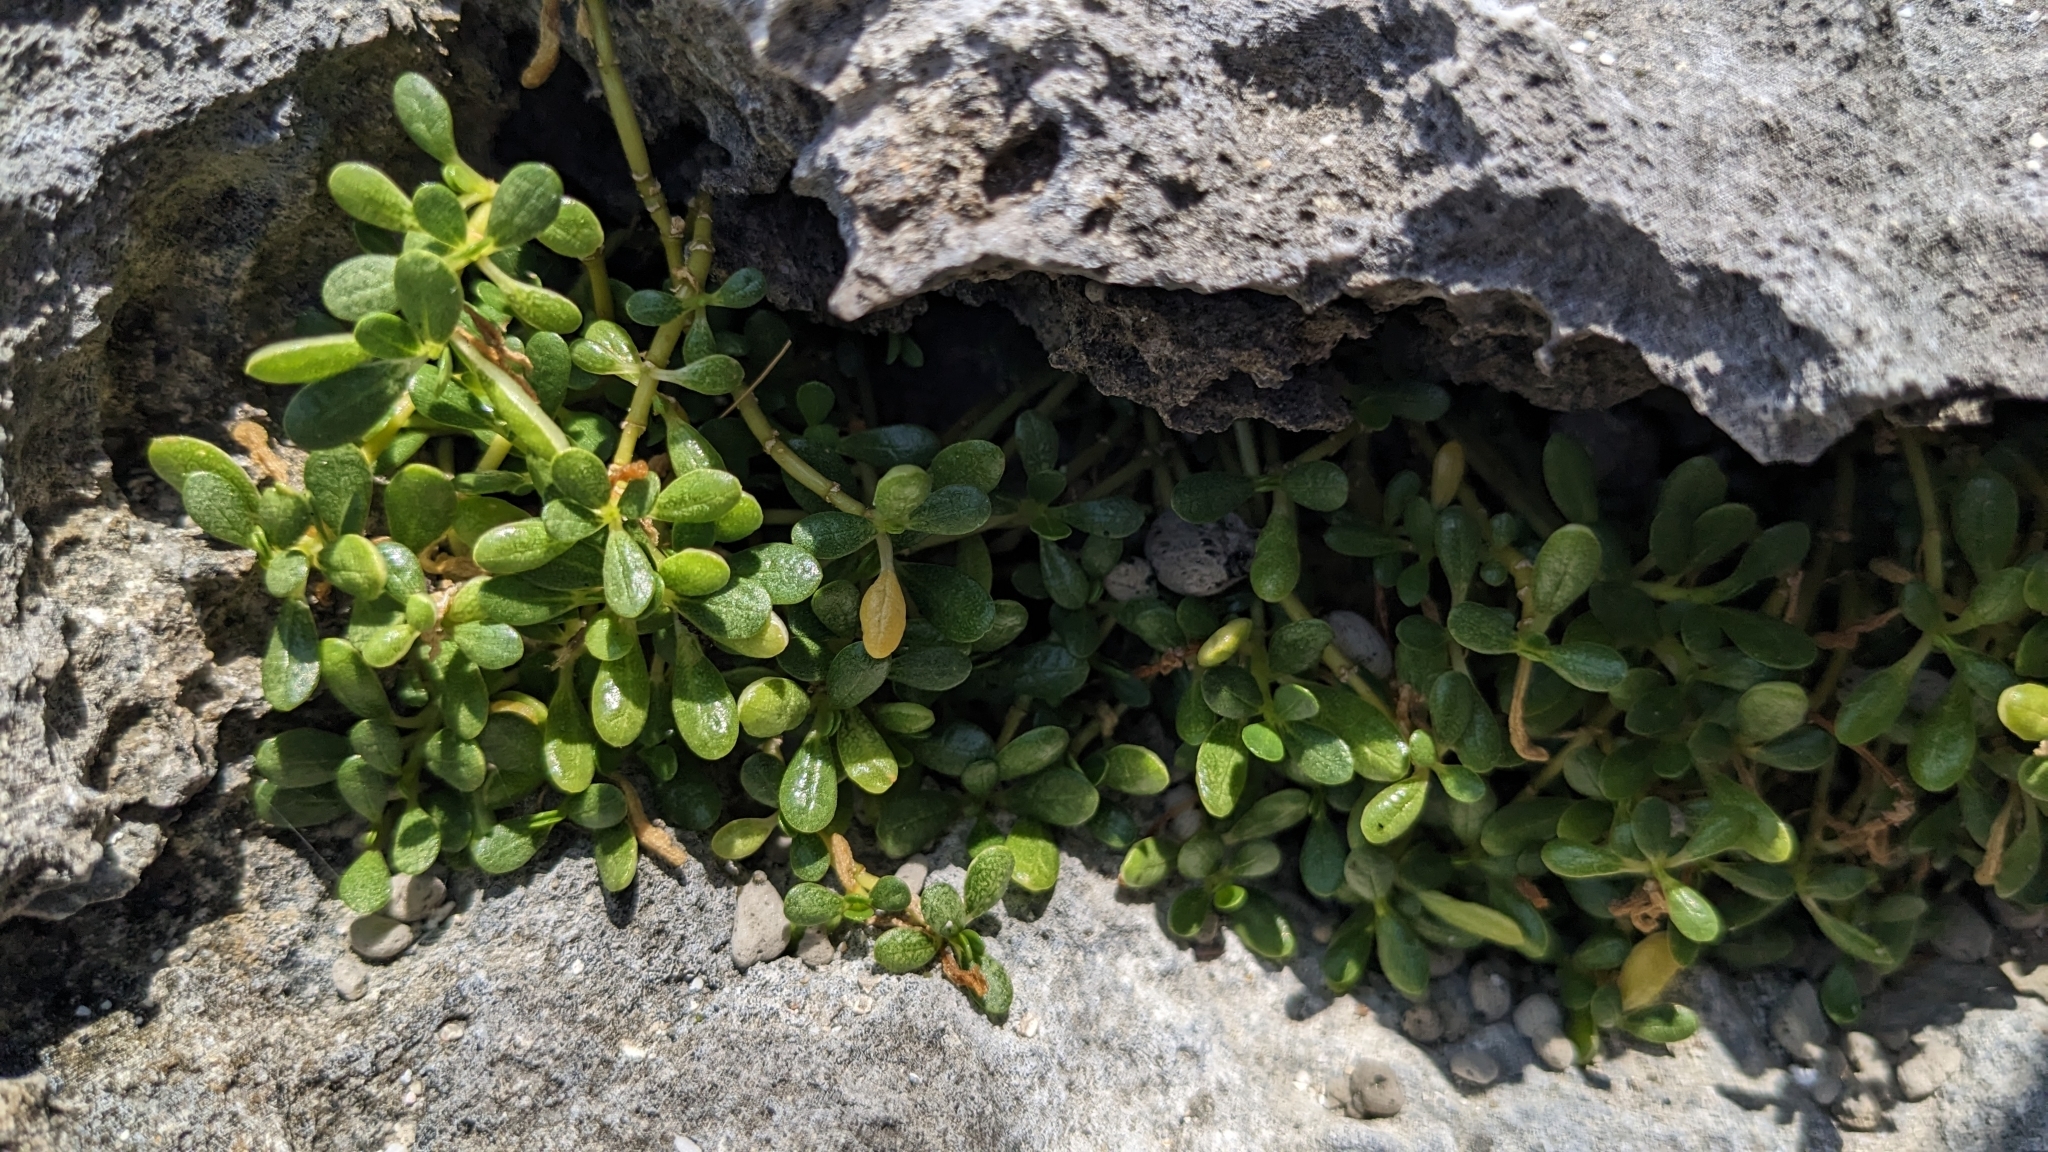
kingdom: Plantae
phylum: Tracheophyta
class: Magnoliopsida
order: Caryophyllales
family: Amaranthaceae
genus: Gomphrena
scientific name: Gomphrena wrightii
